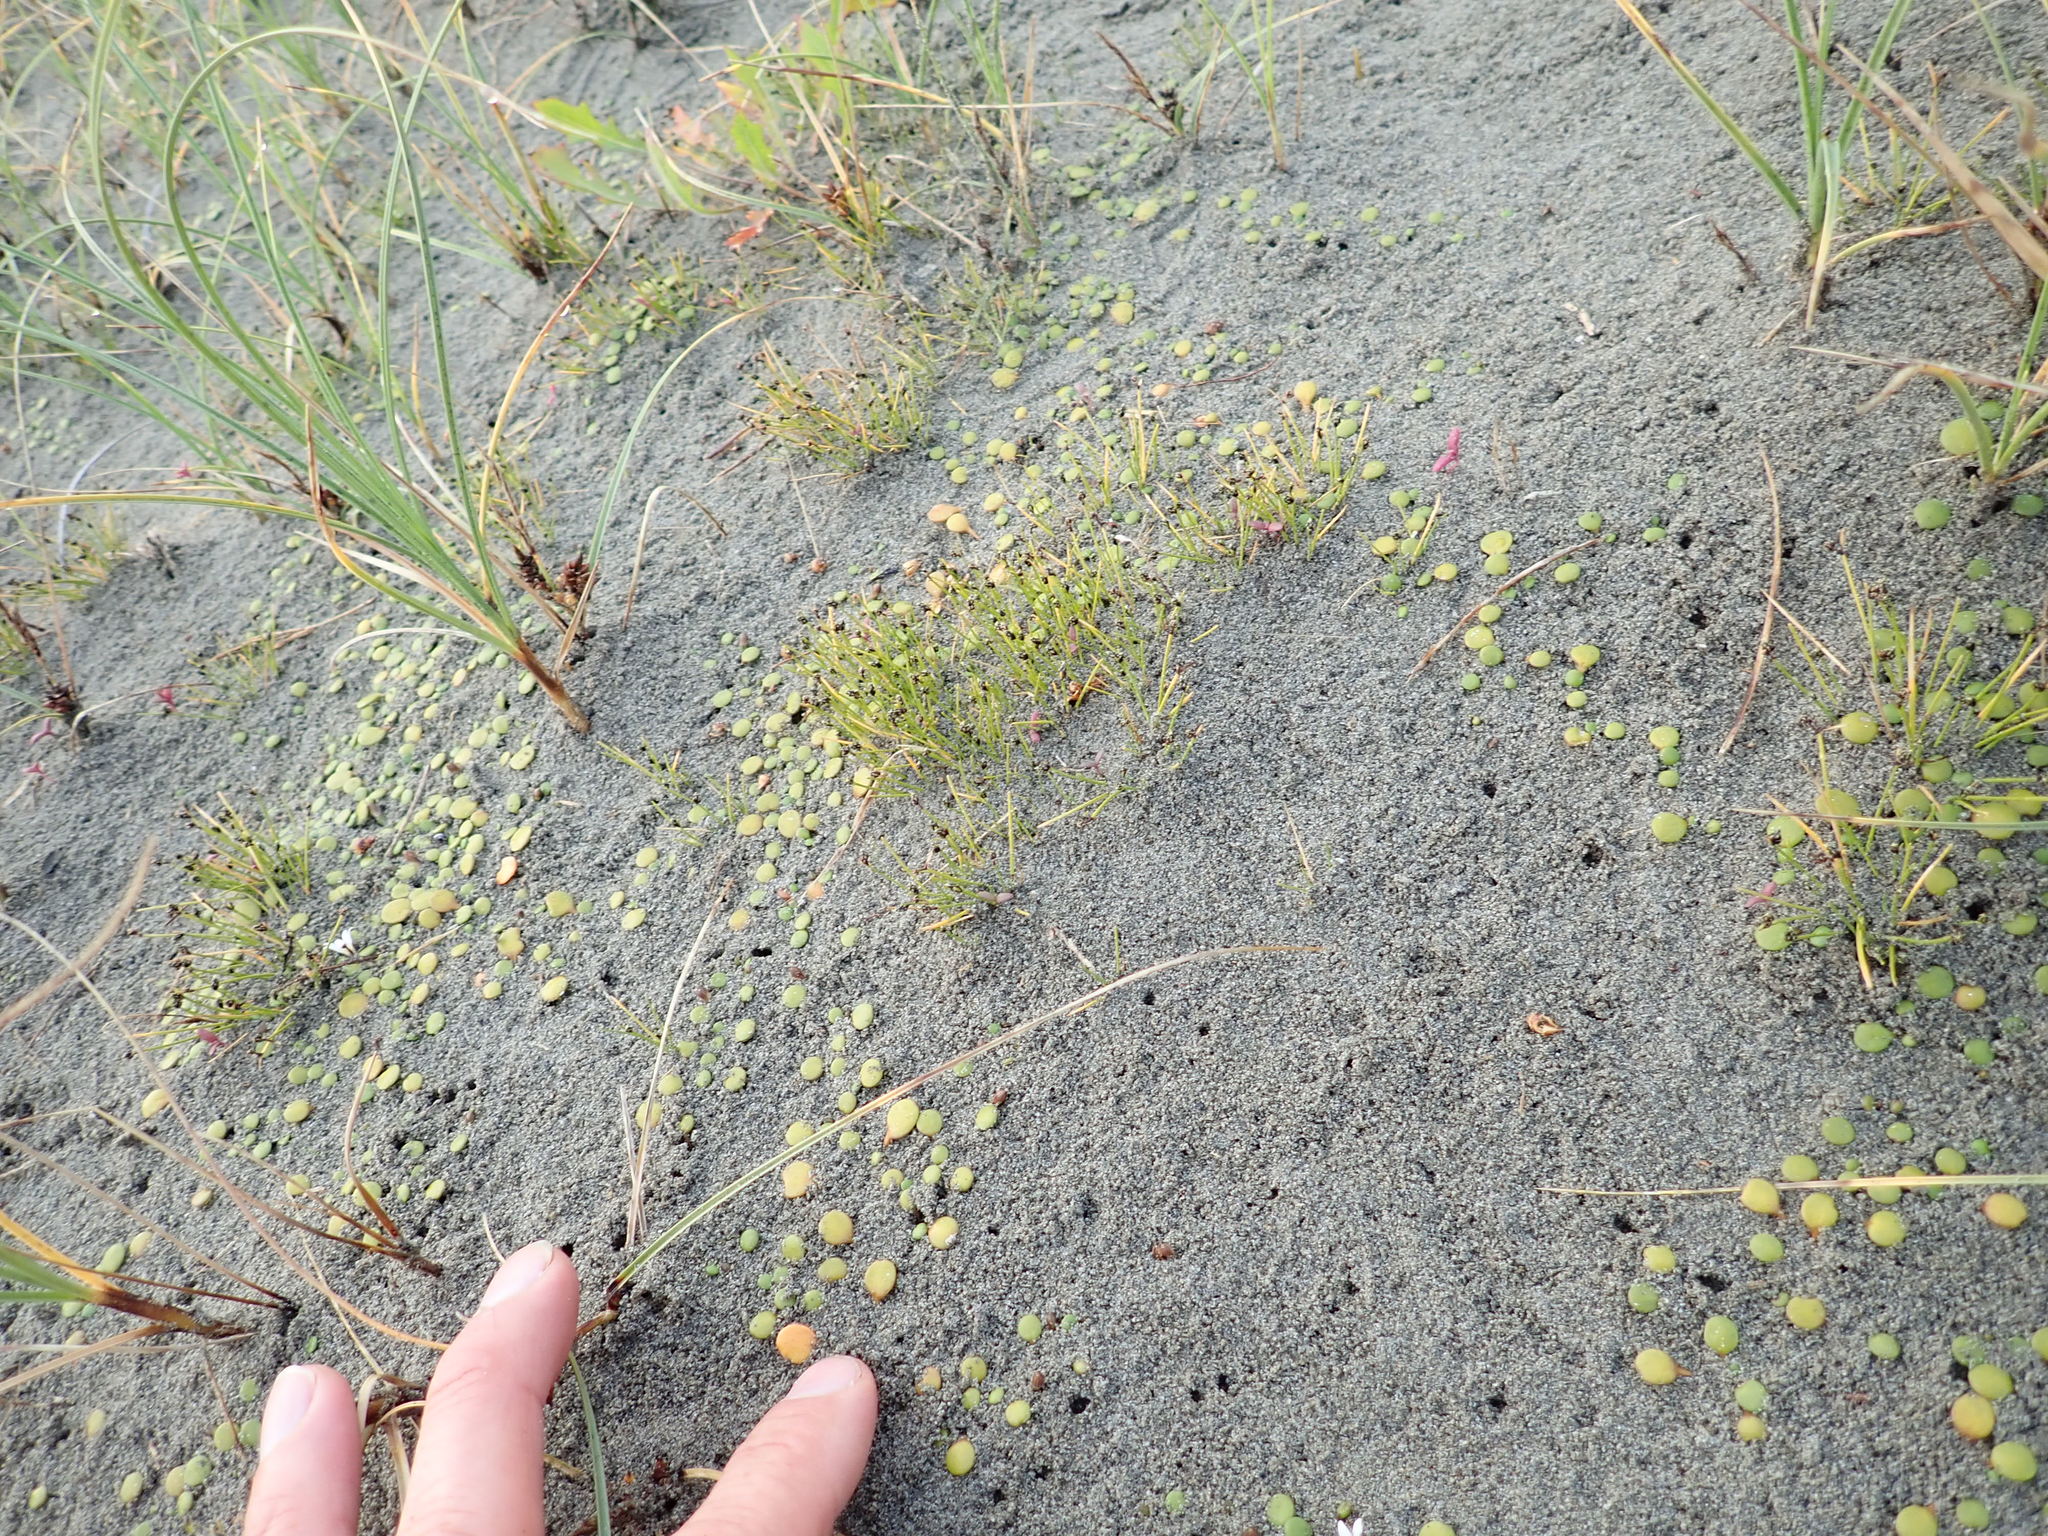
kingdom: Plantae
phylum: Tracheophyta
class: Liliopsida
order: Poales
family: Cyperaceae
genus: Isolepis
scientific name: Isolepis cernua
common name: Slender club-rush
